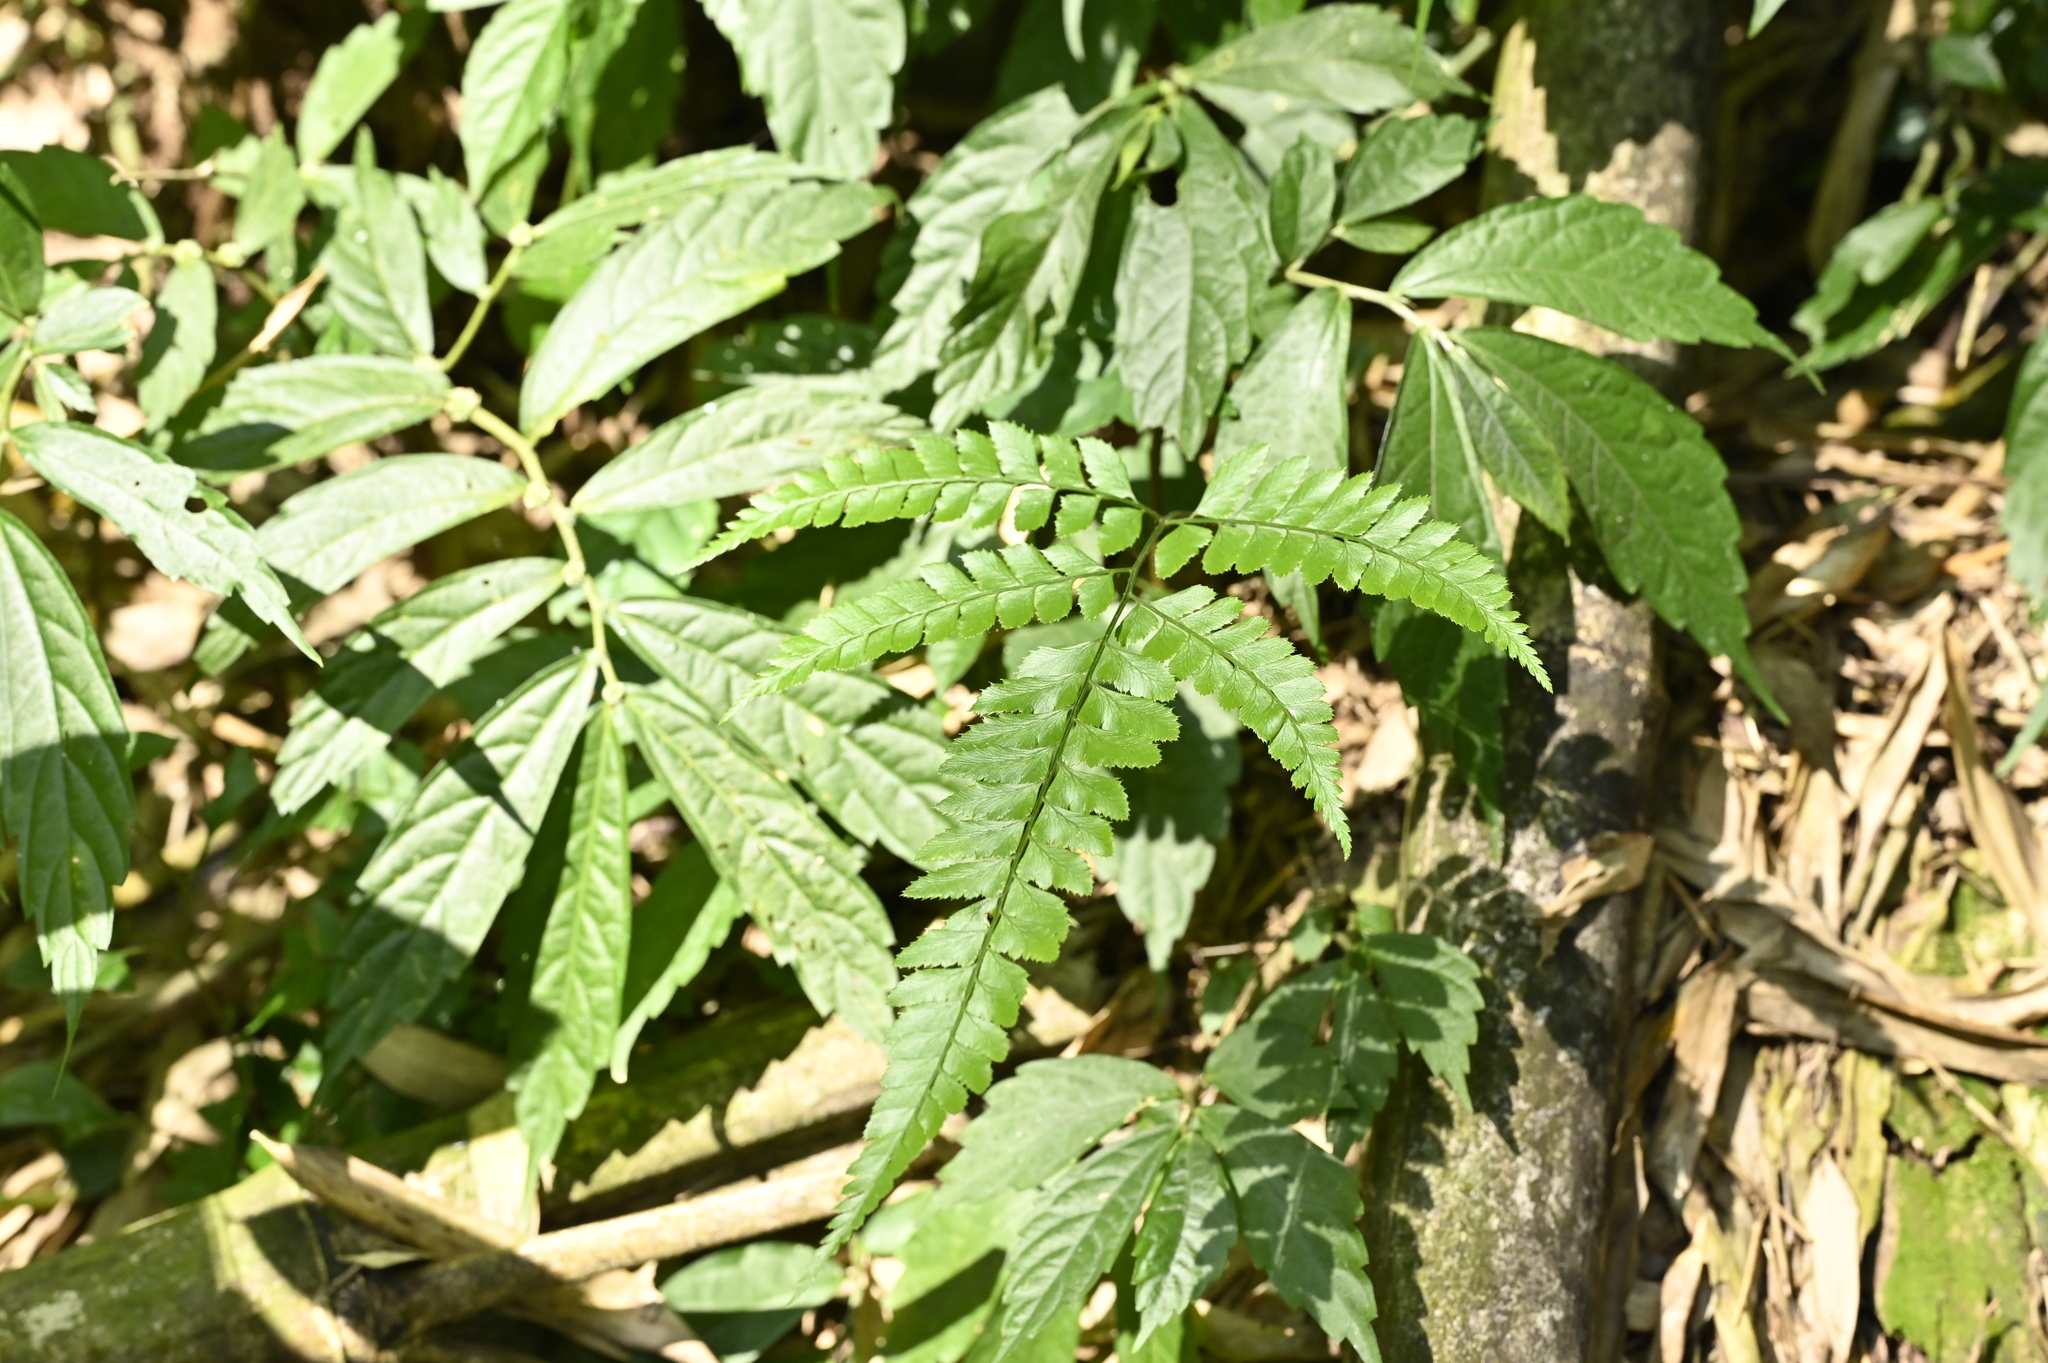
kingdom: Plantae
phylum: Tracheophyta
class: Polypodiopsida
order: Polypodiales
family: Dryopteridaceae
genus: Arachniodes
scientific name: Arachniodes rhomboidea
